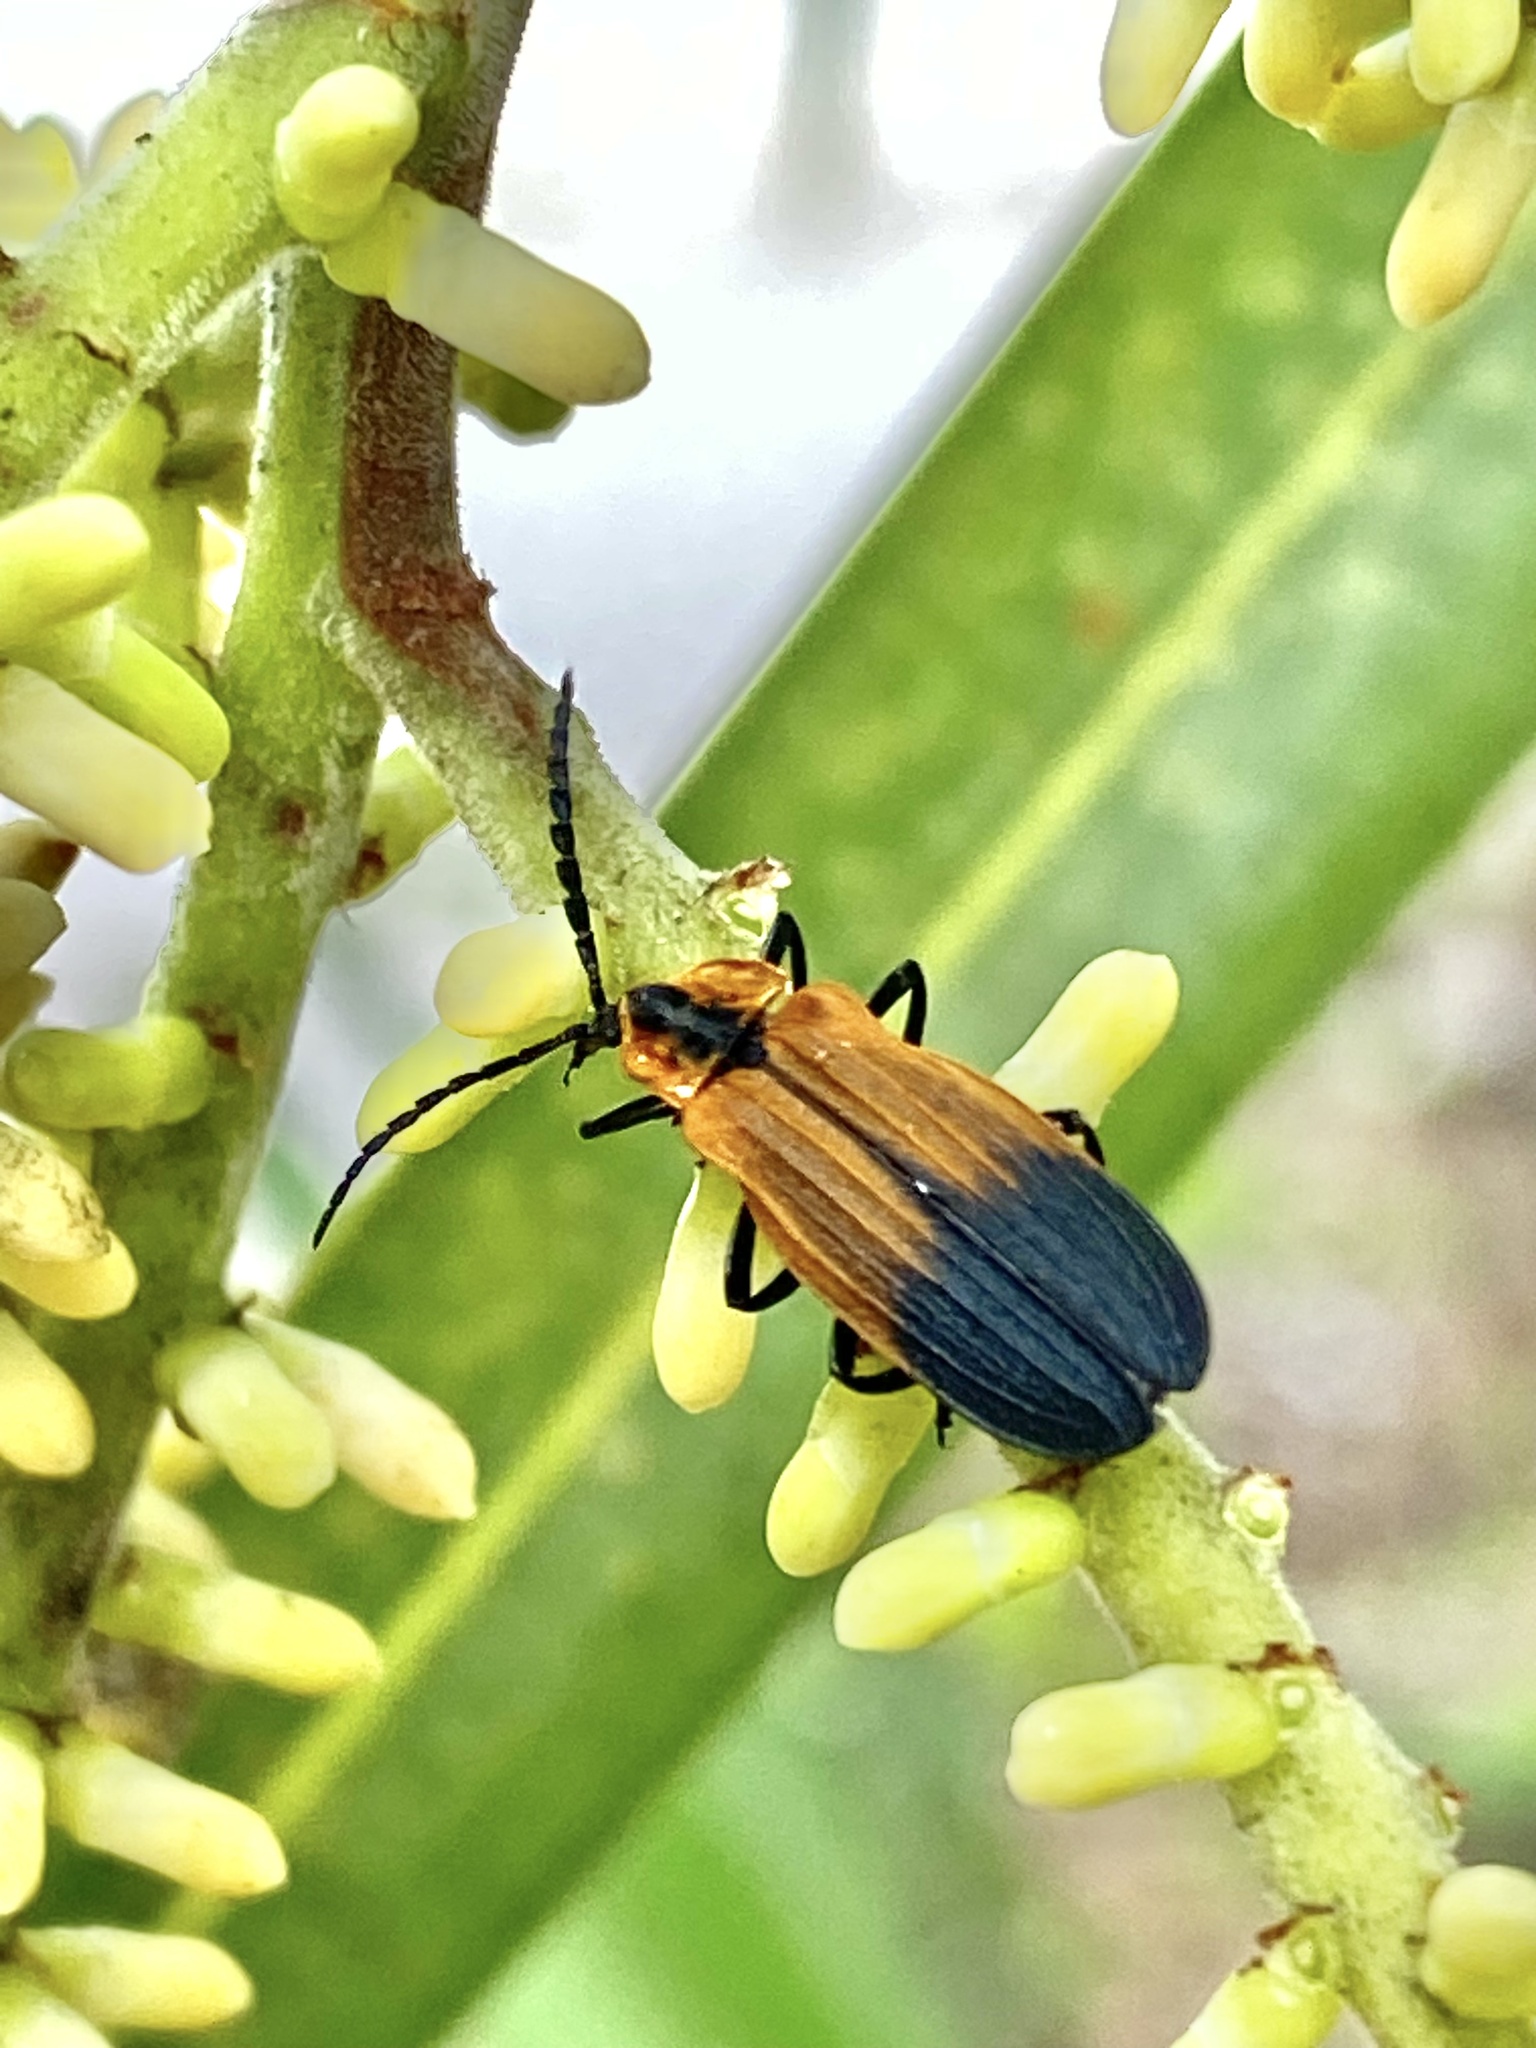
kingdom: Animalia
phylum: Arthropoda
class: Insecta
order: Coleoptera
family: Lycidae
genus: Caenia
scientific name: Caenia dimidiata
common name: Terminal net-winged beetle
